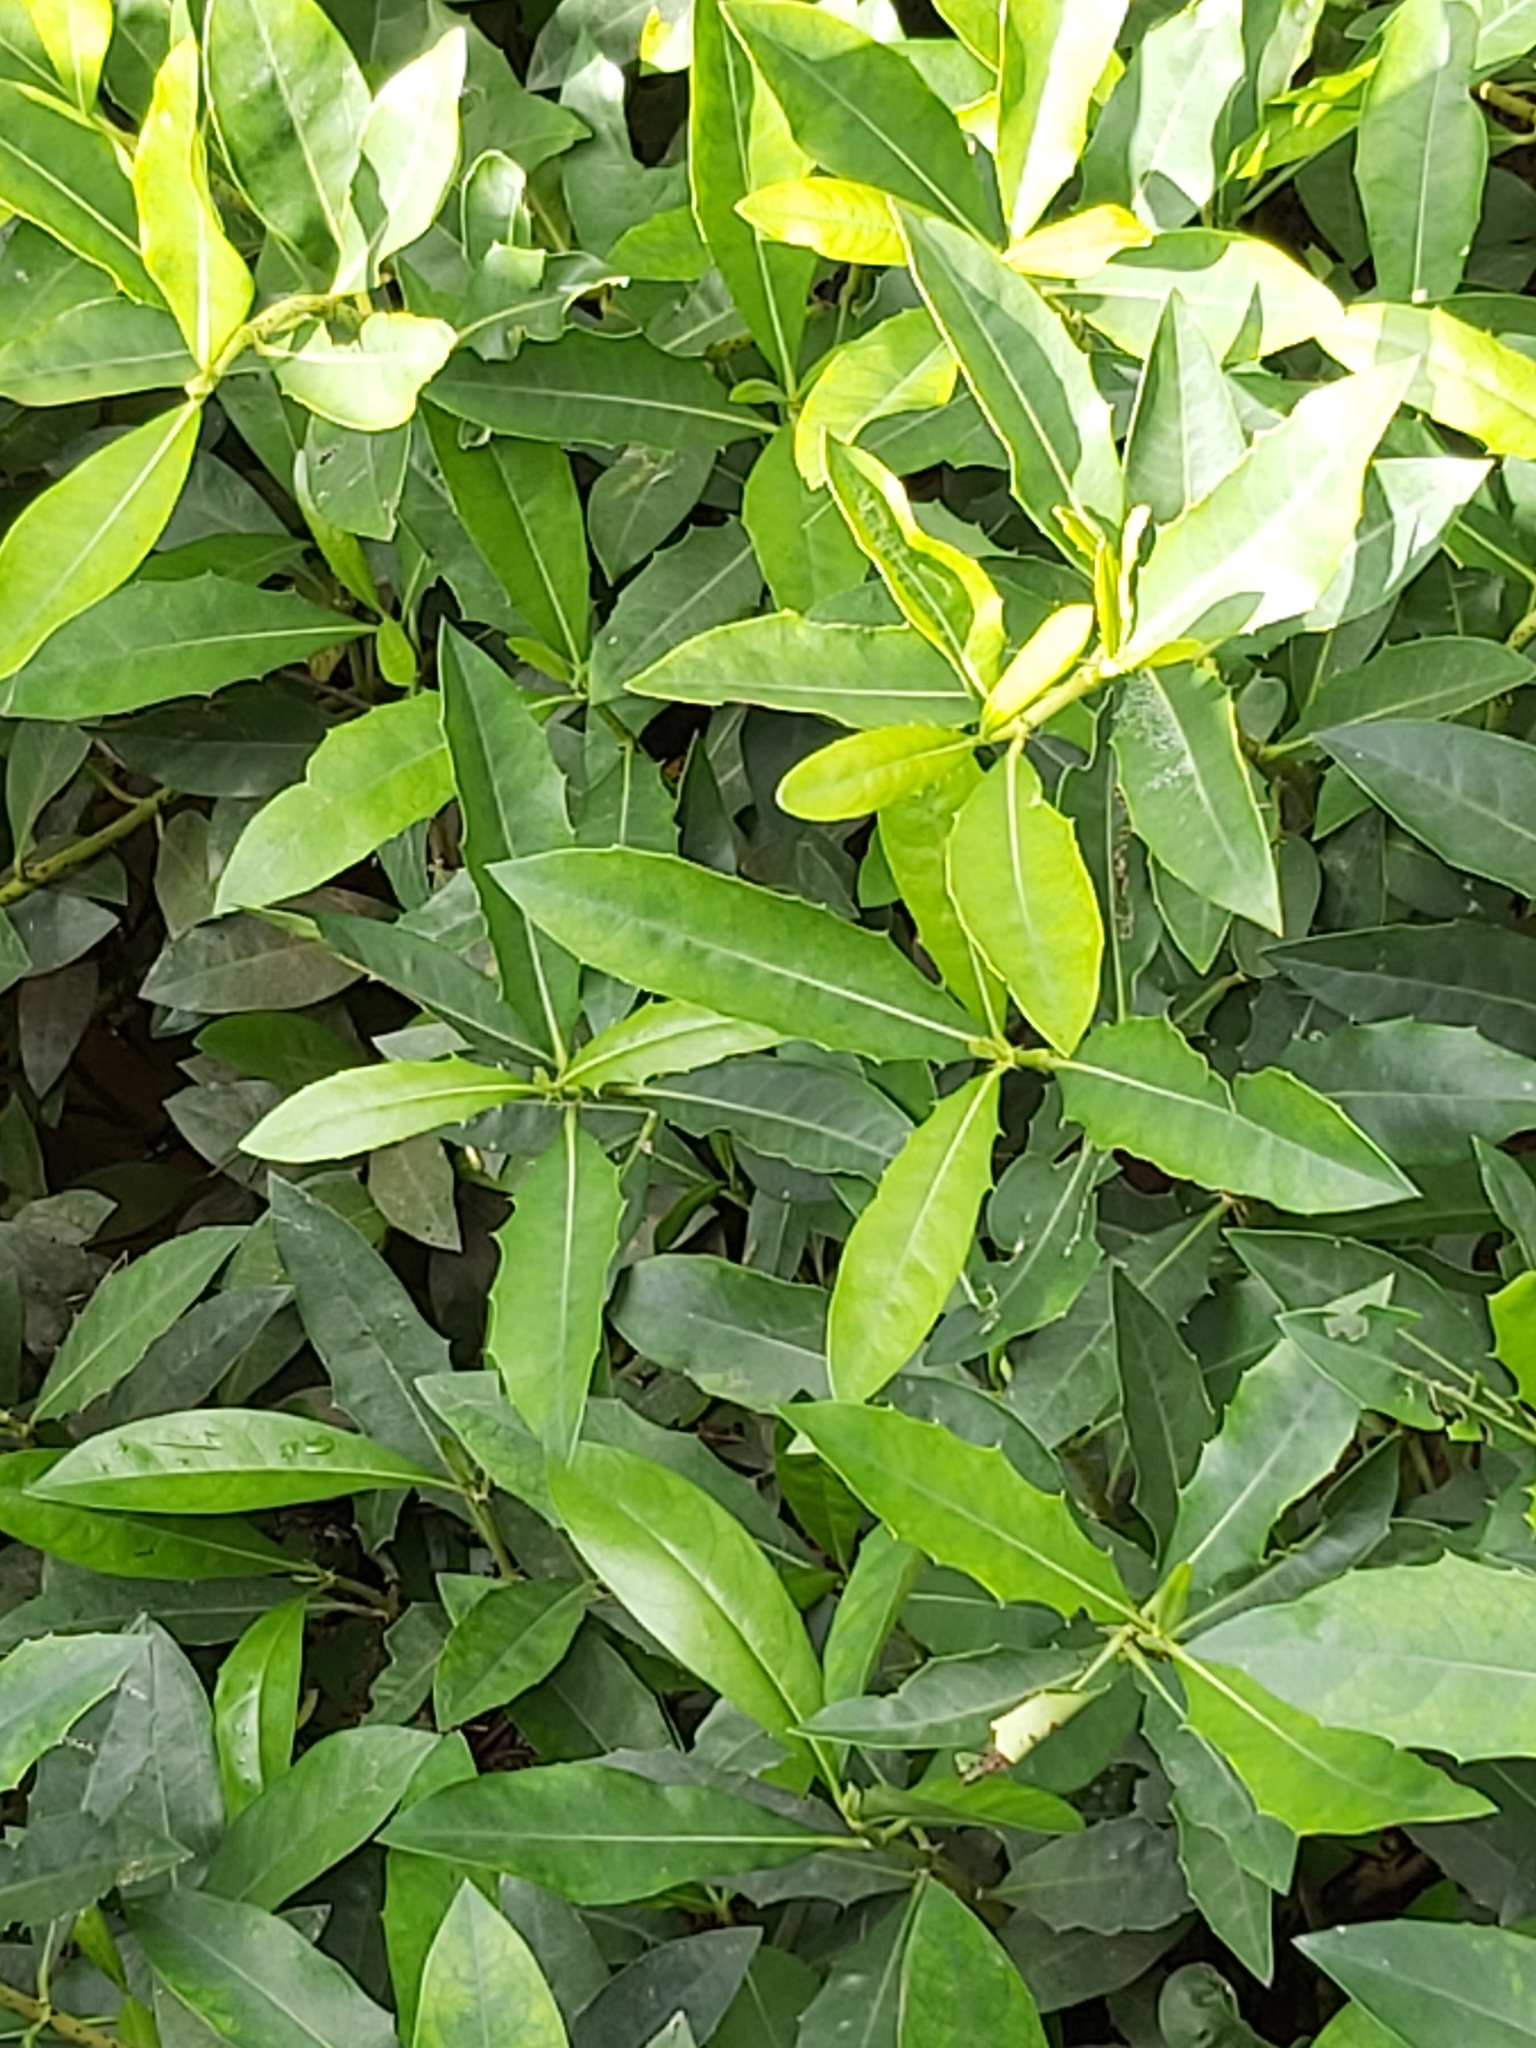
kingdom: Plantae
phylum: Tracheophyta
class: Magnoliopsida
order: Lamiales
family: Acanthaceae
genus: Acanthus
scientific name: Acanthus ilicifolius
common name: Holy mangrove
